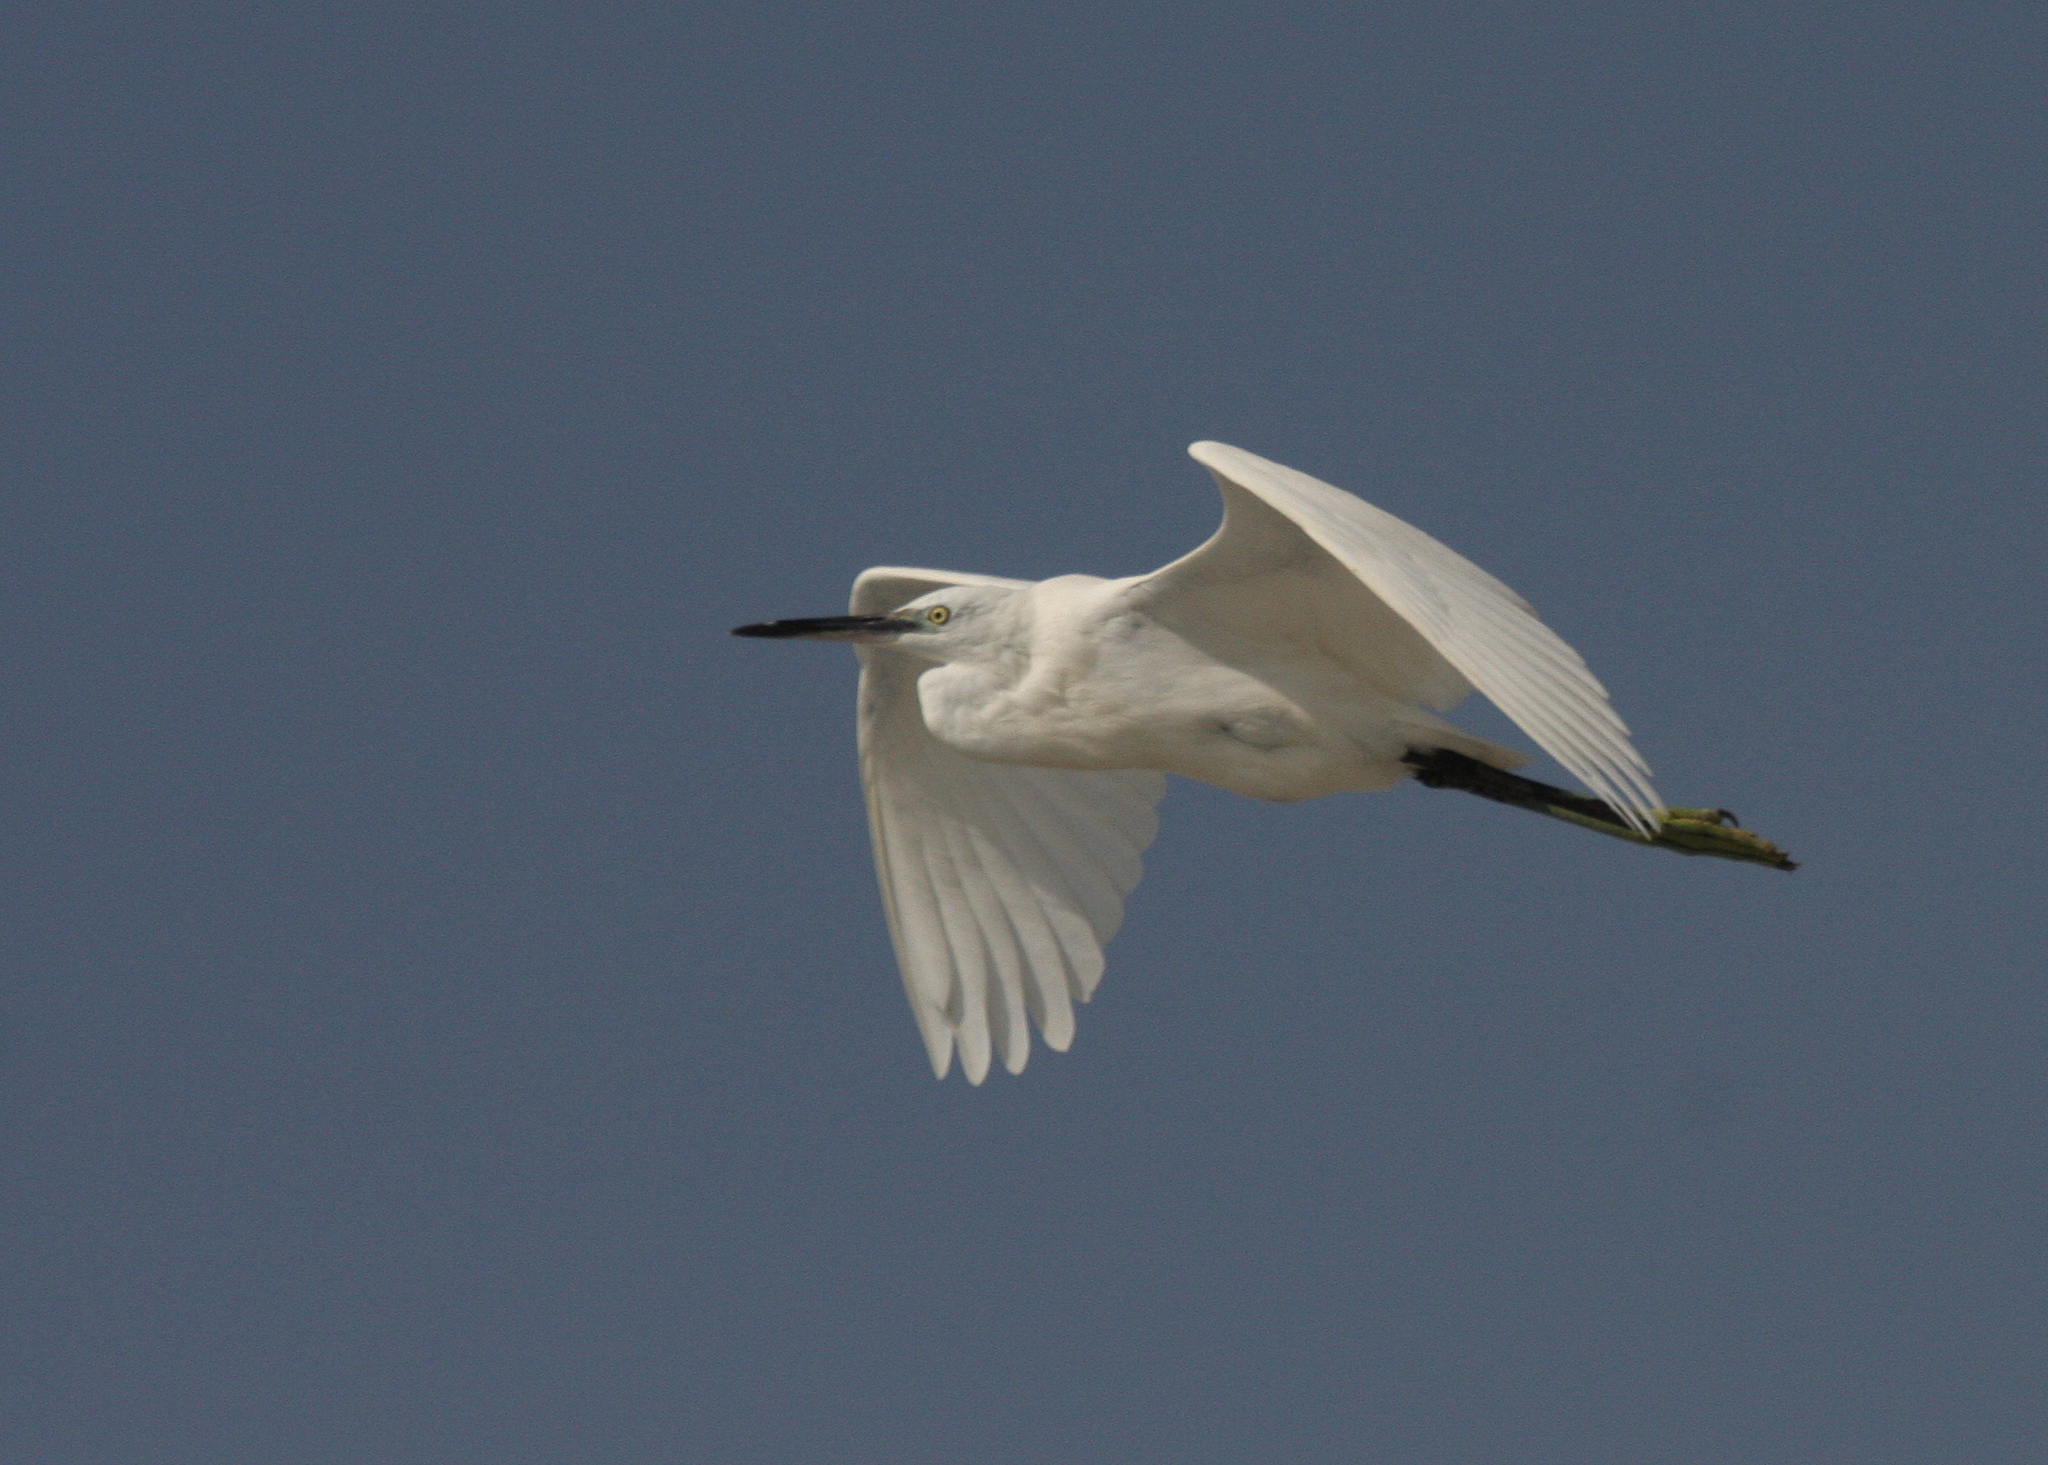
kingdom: Animalia
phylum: Chordata
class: Aves
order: Pelecaniformes
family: Ardeidae
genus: Egretta
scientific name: Egretta garzetta
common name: Little egret
